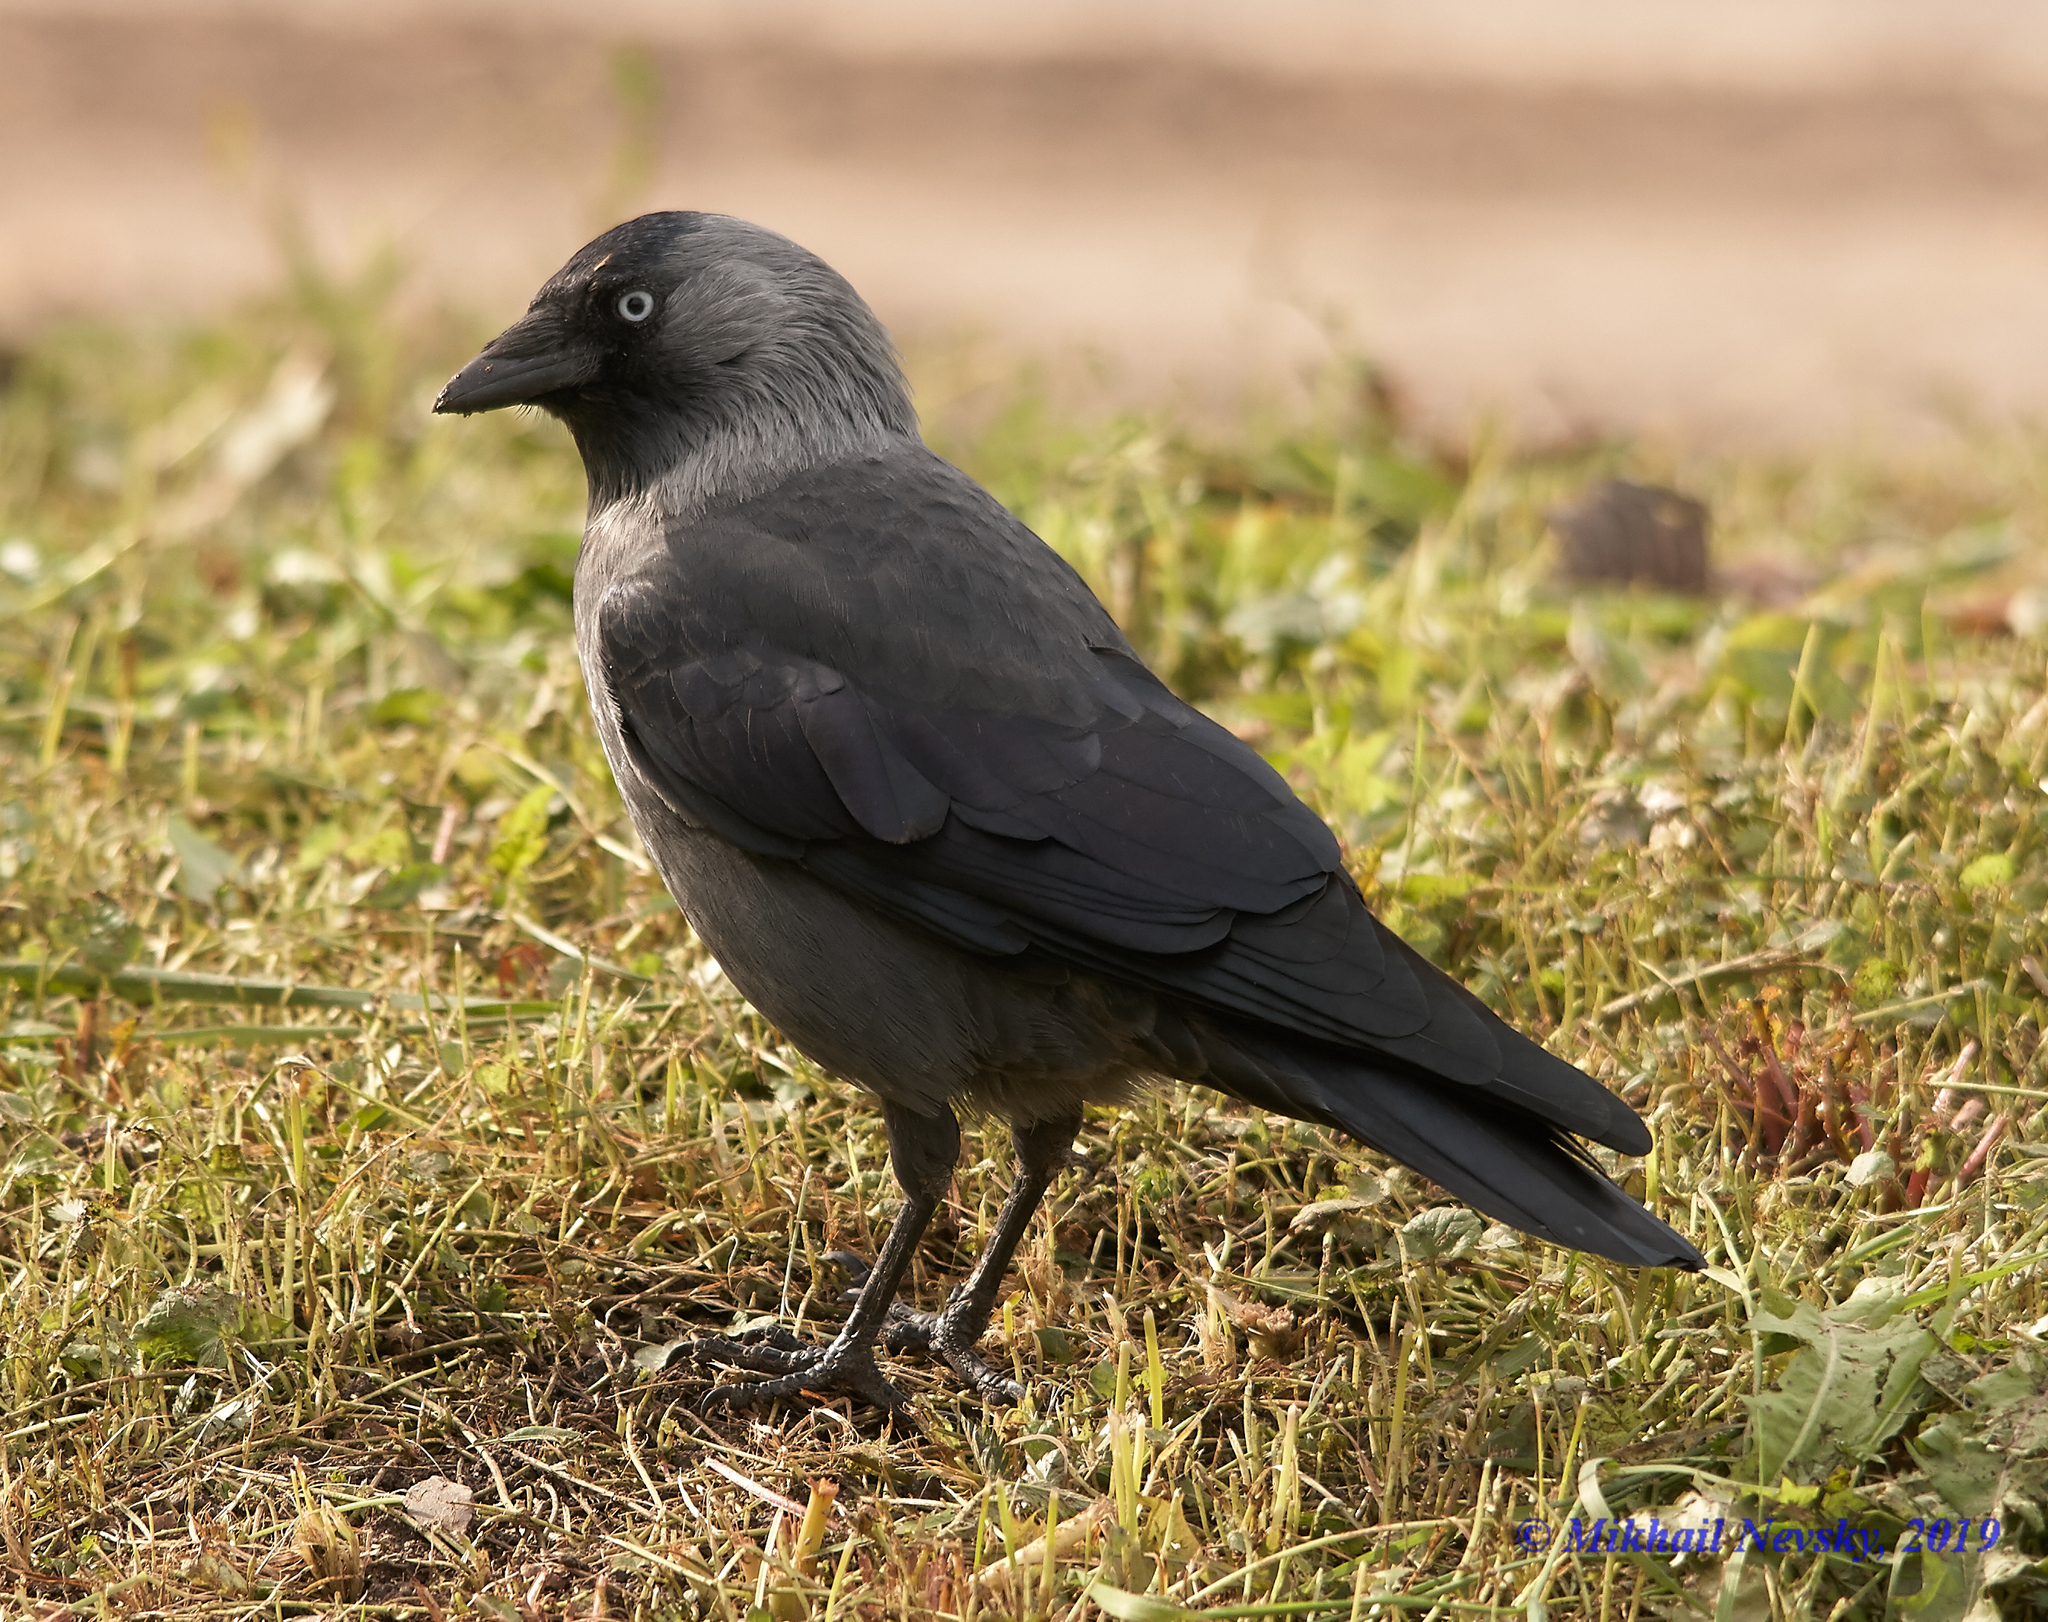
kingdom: Animalia
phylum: Chordata
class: Aves
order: Passeriformes
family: Corvidae
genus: Coloeus
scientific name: Coloeus monedula
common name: Western jackdaw
